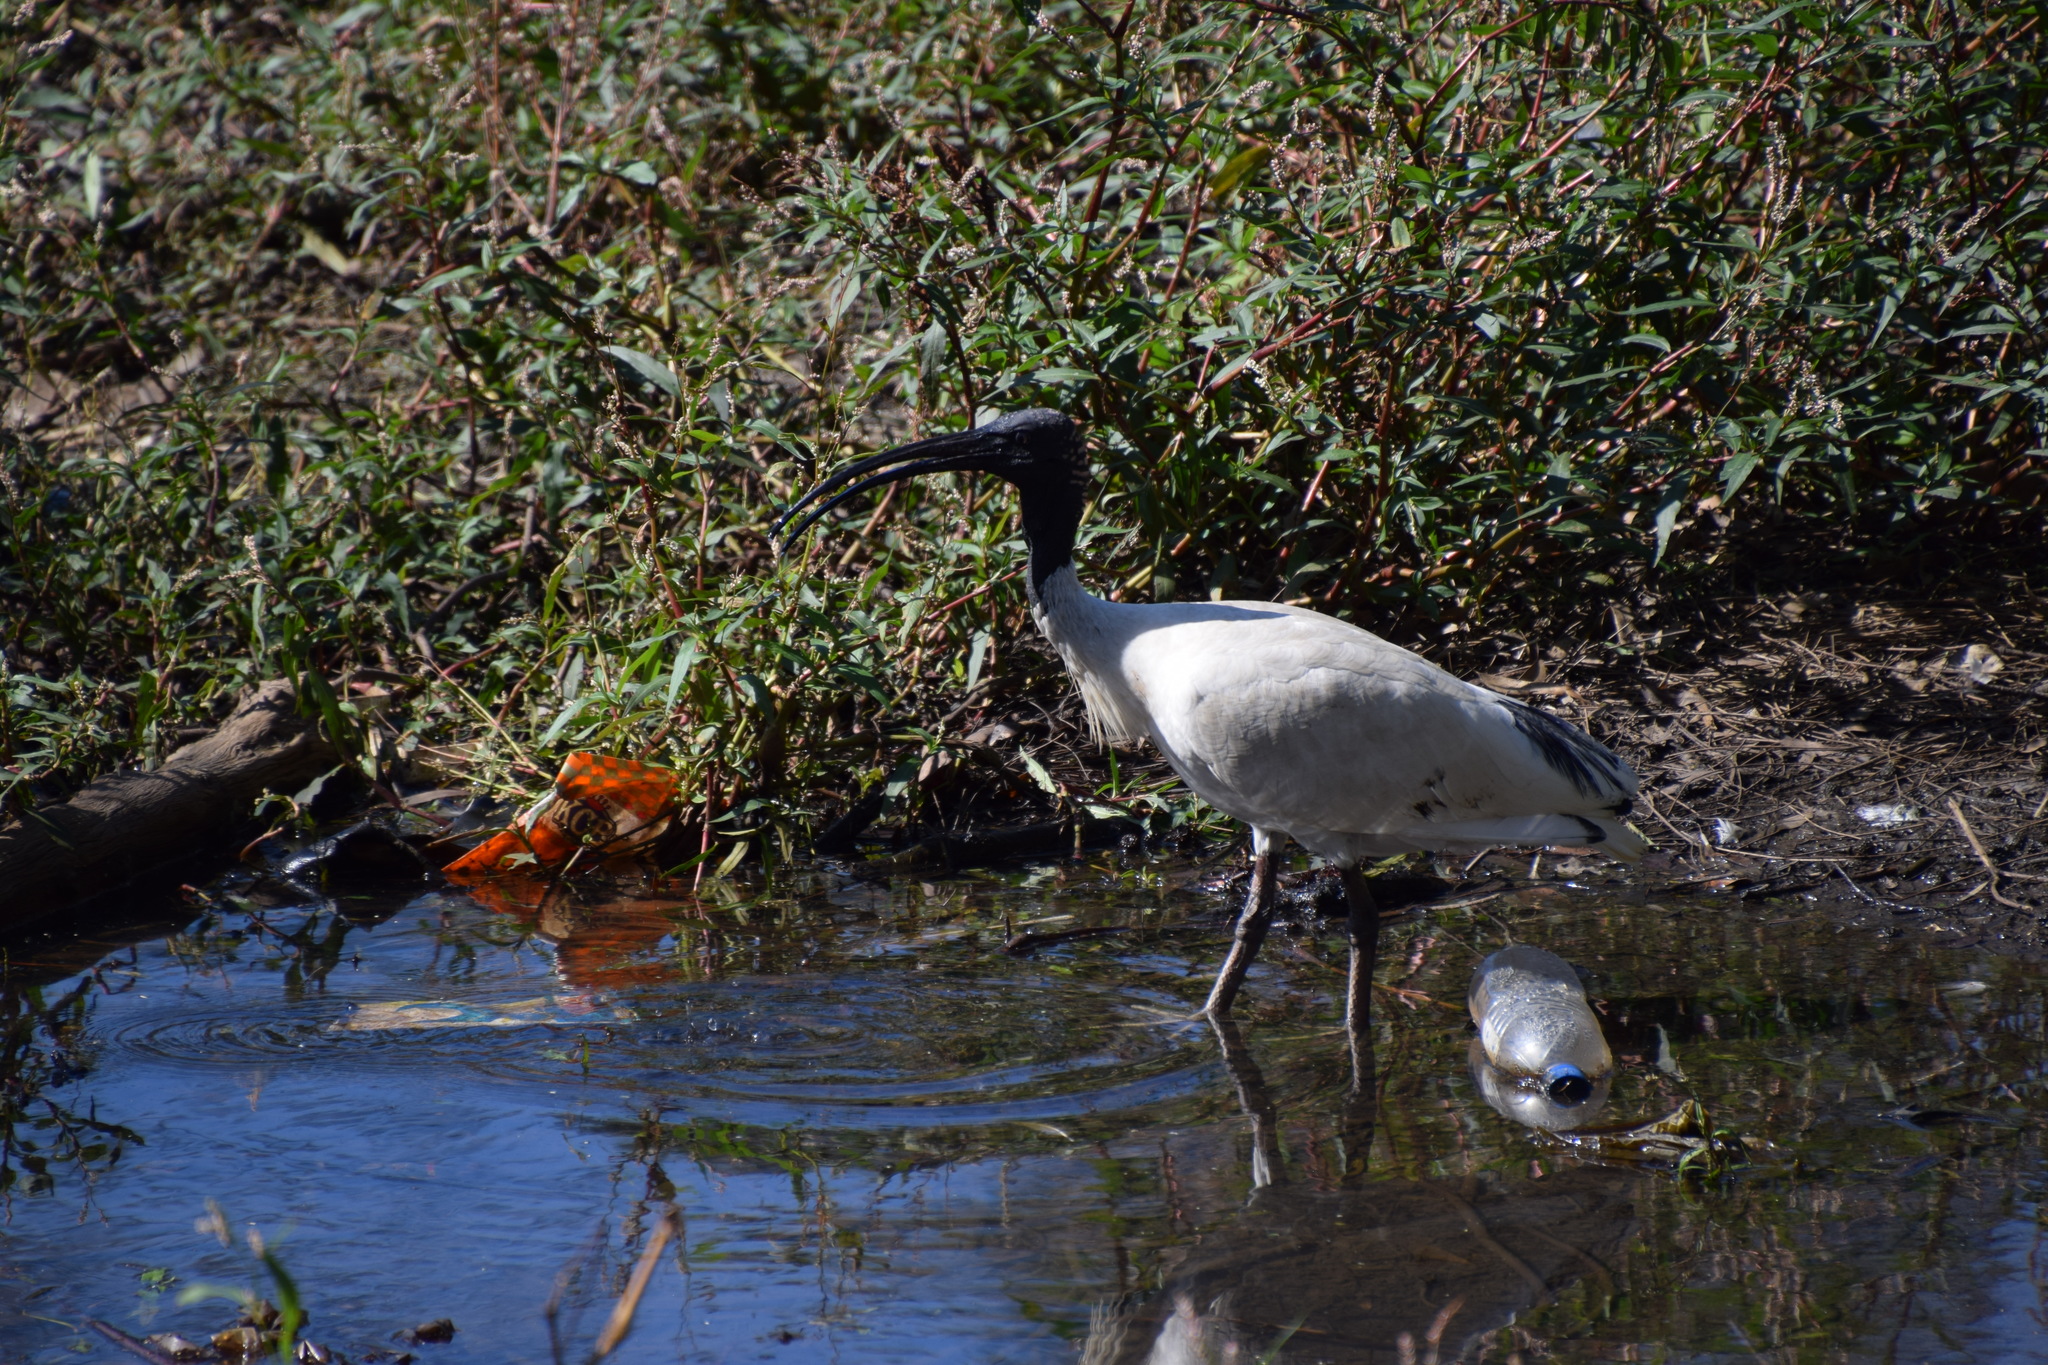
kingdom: Animalia
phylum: Chordata
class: Aves
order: Pelecaniformes
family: Threskiornithidae
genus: Threskiornis
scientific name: Threskiornis molucca
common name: Australian white ibis
